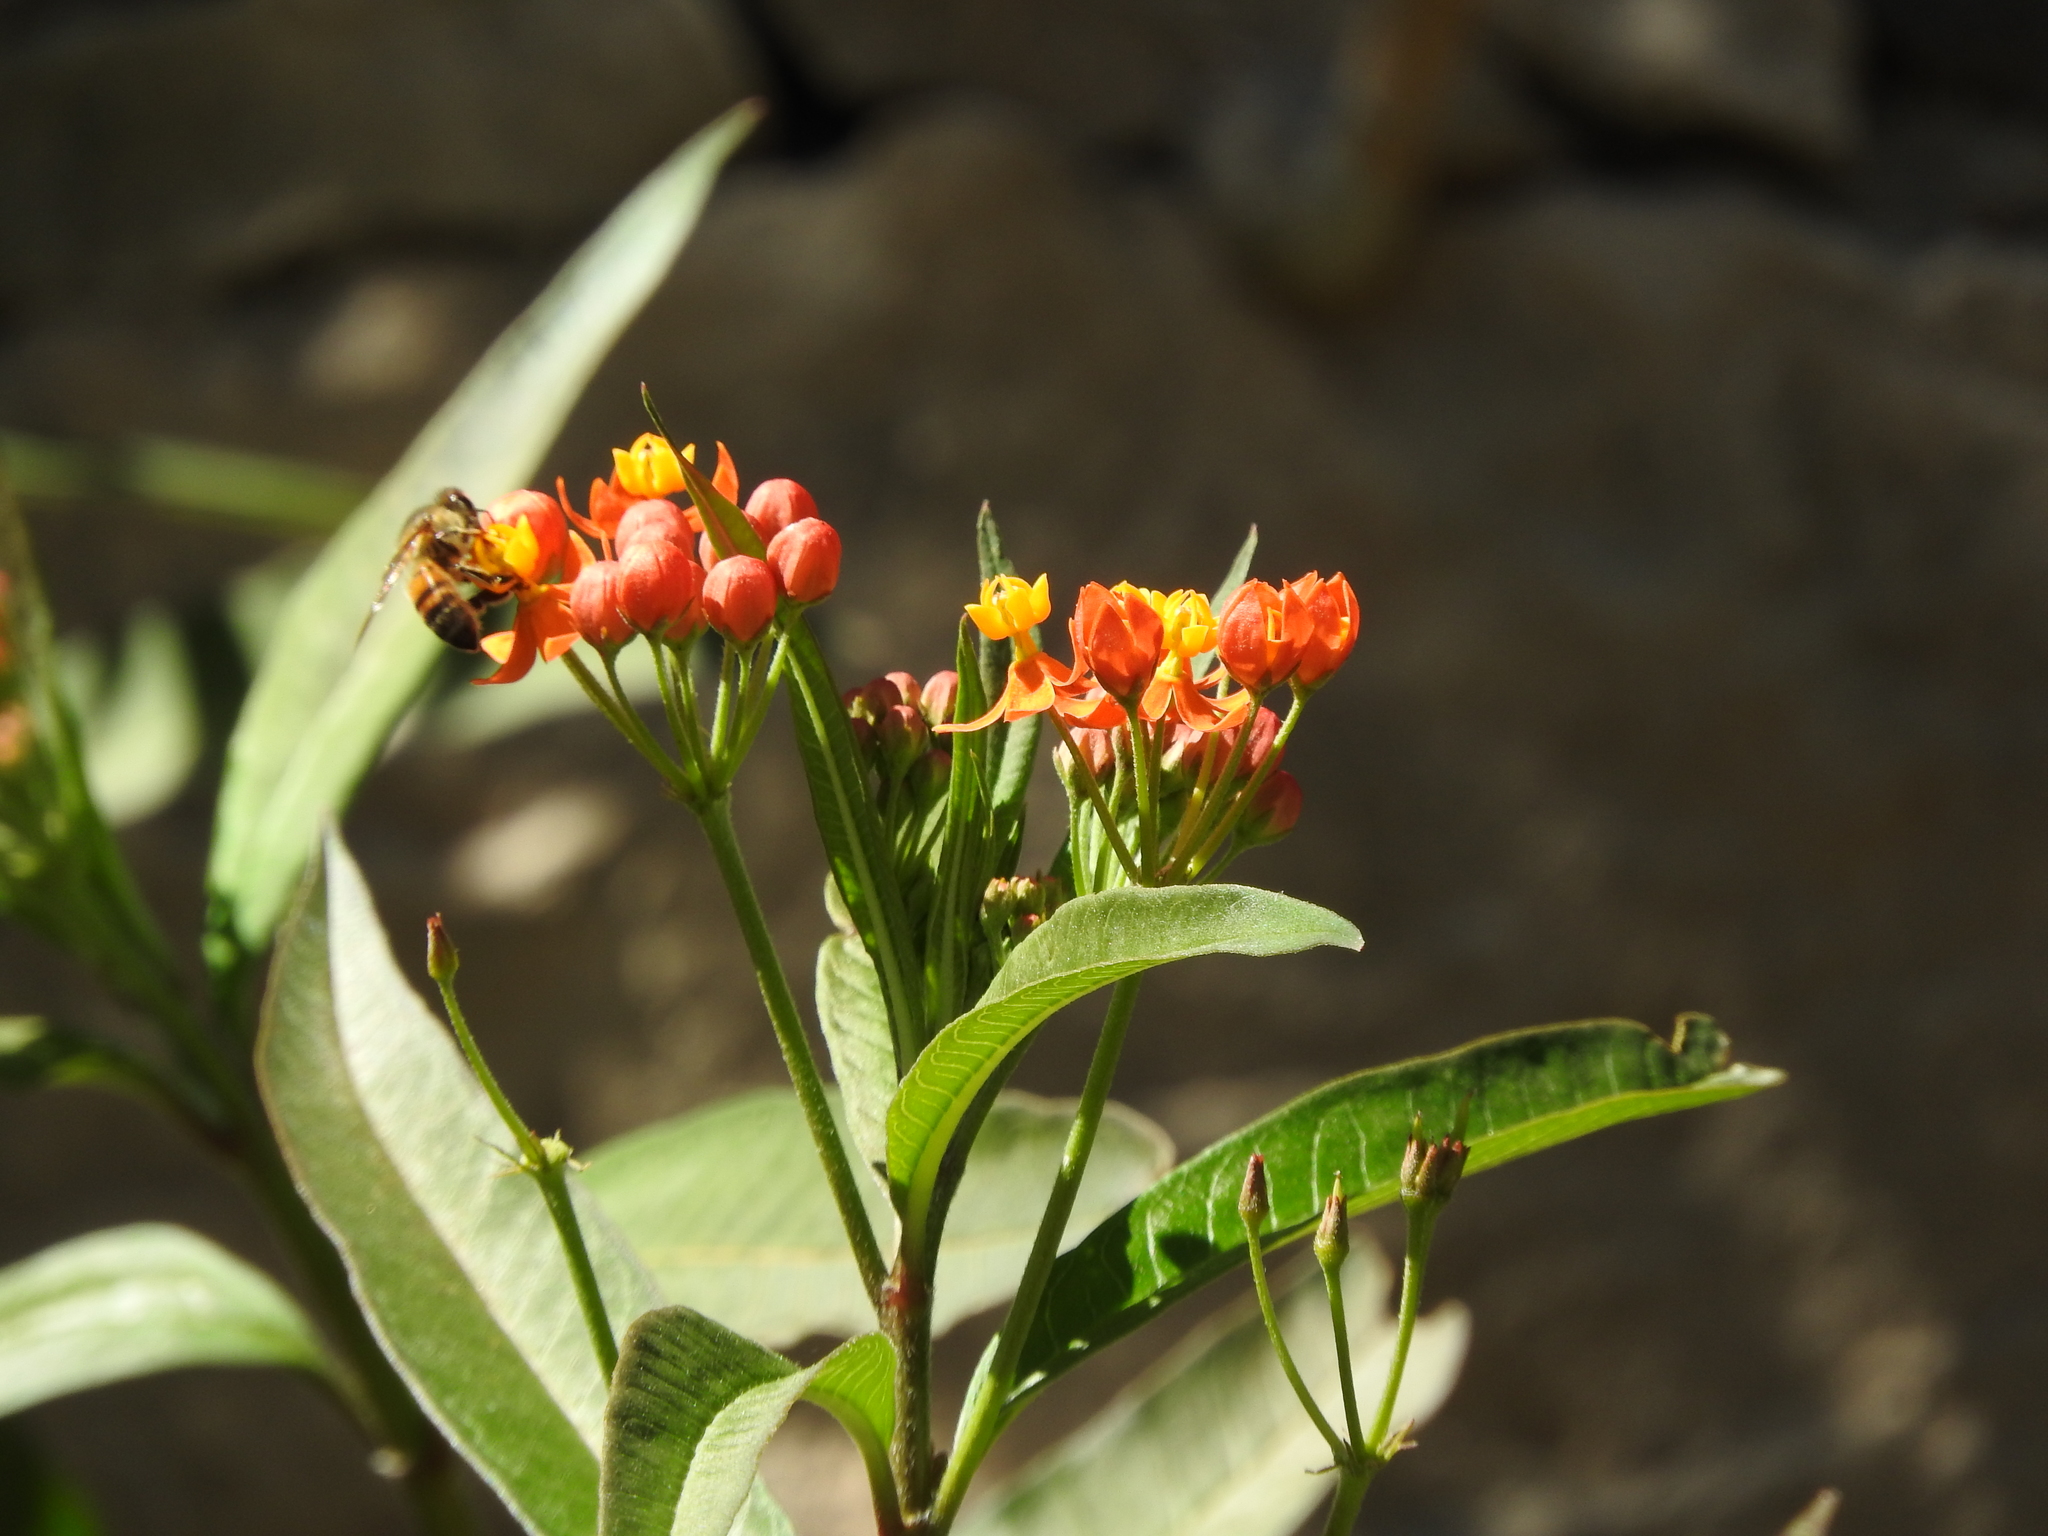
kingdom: Animalia
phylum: Arthropoda
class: Insecta
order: Hymenoptera
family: Apidae
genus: Apis
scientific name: Apis mellifera
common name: Honey bee
